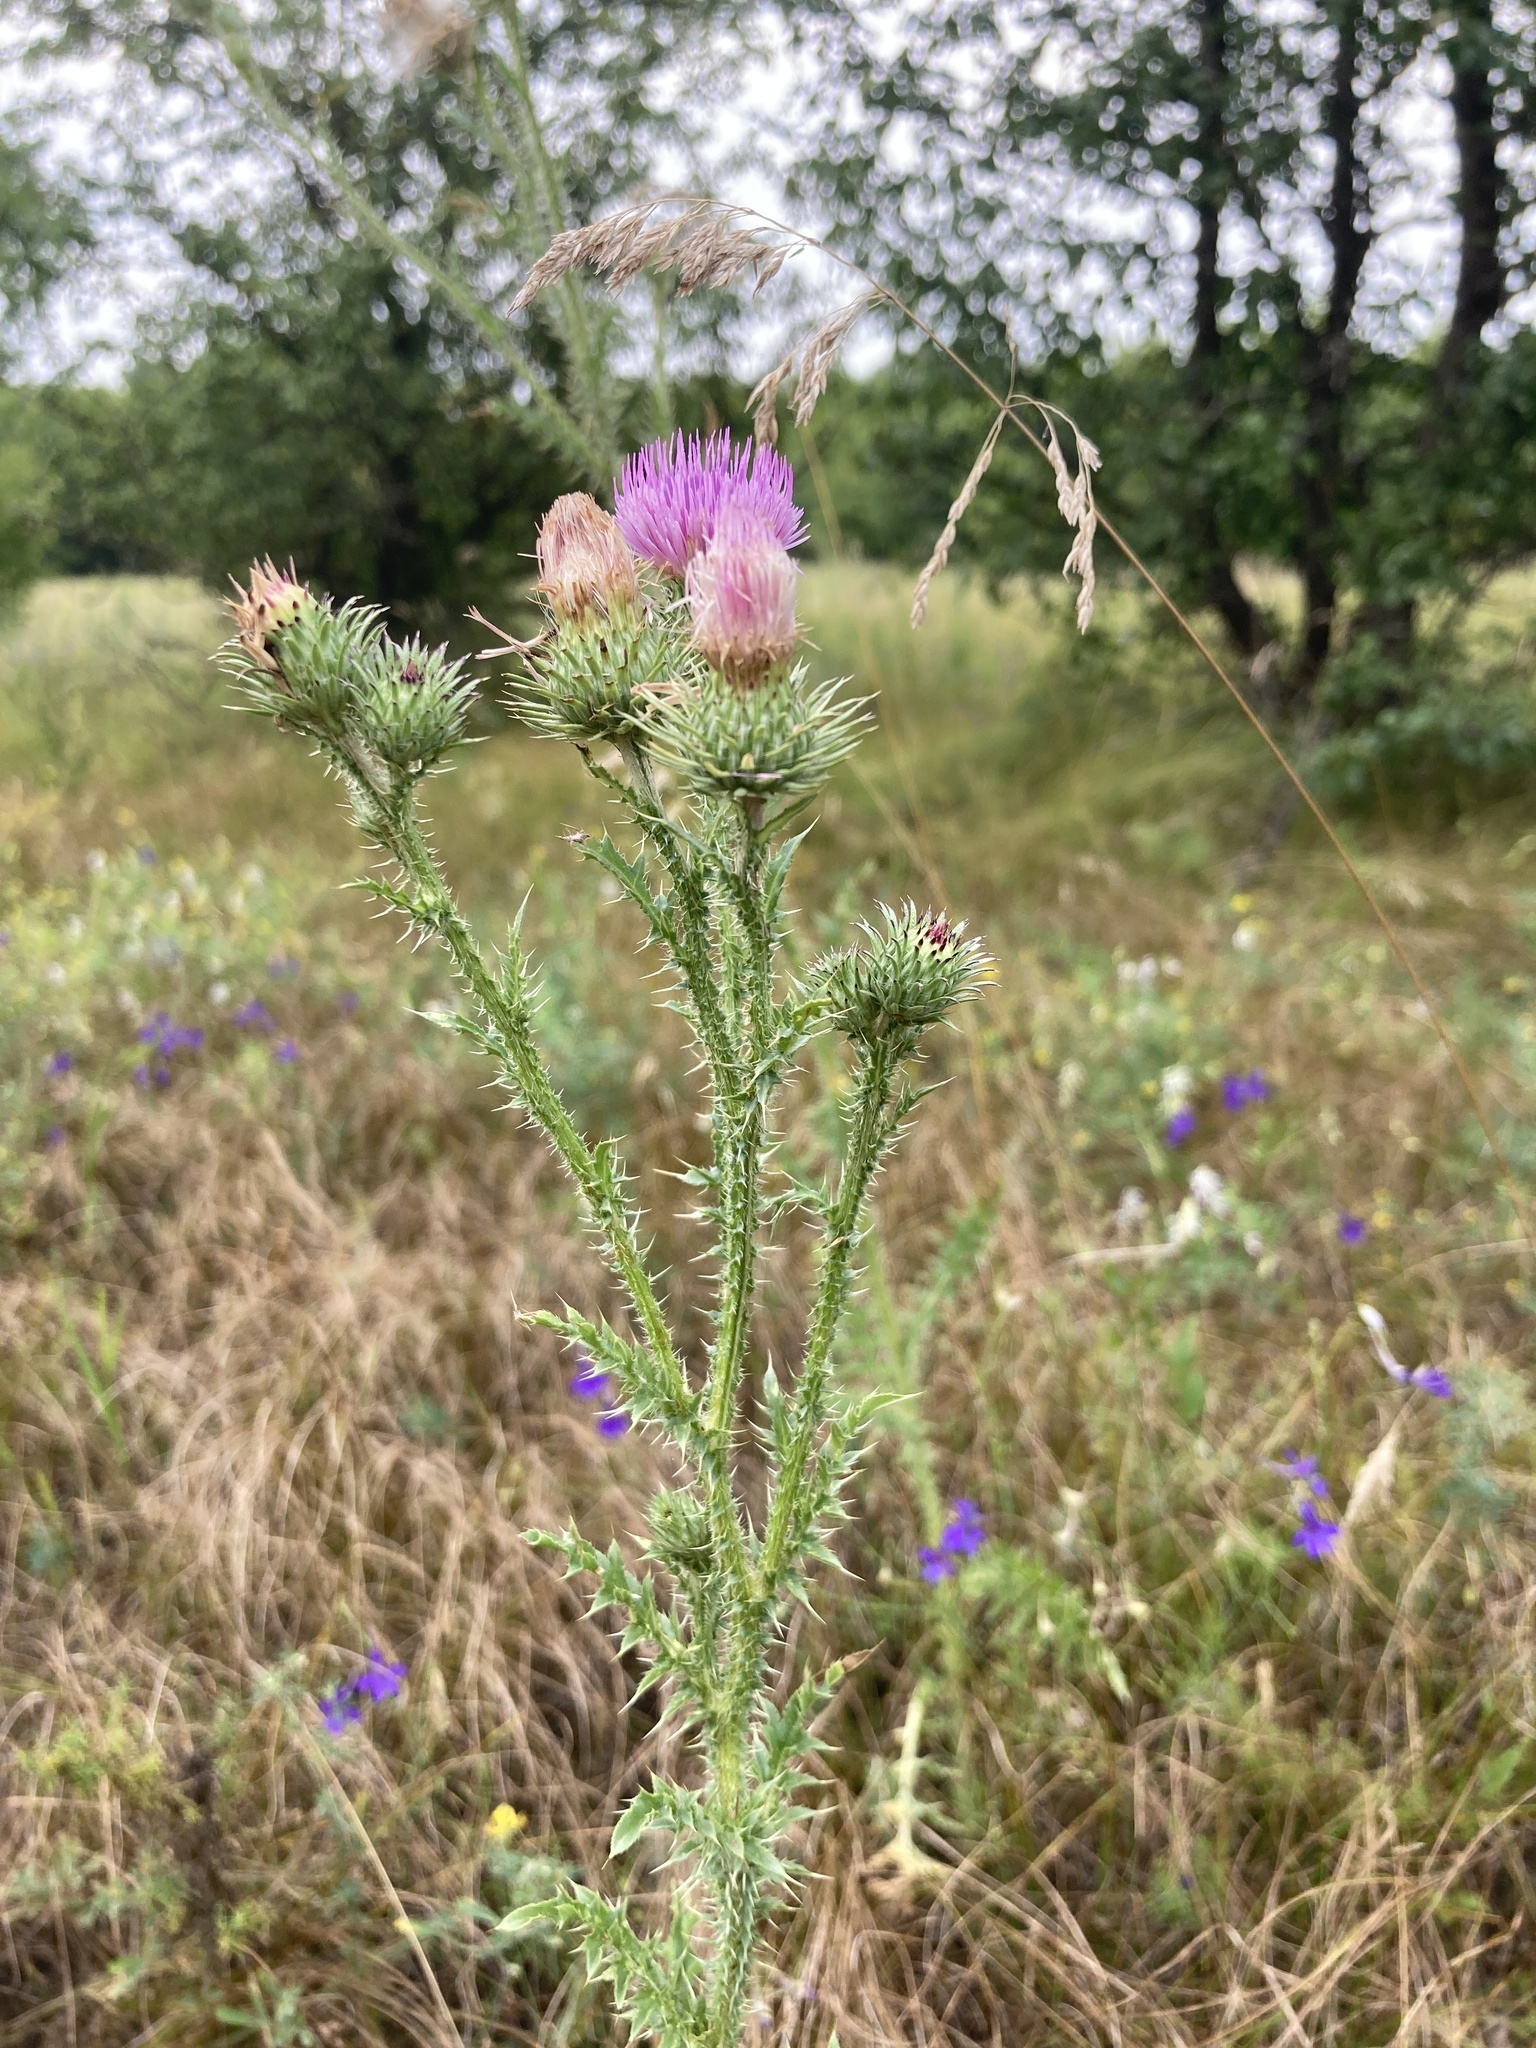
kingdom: Plantae
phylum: Tracheophyta
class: Magnoliopsida
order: Asterales
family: Asteraceae
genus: Carduus
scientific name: Carduus acanthoides
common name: Plumeless thistle
